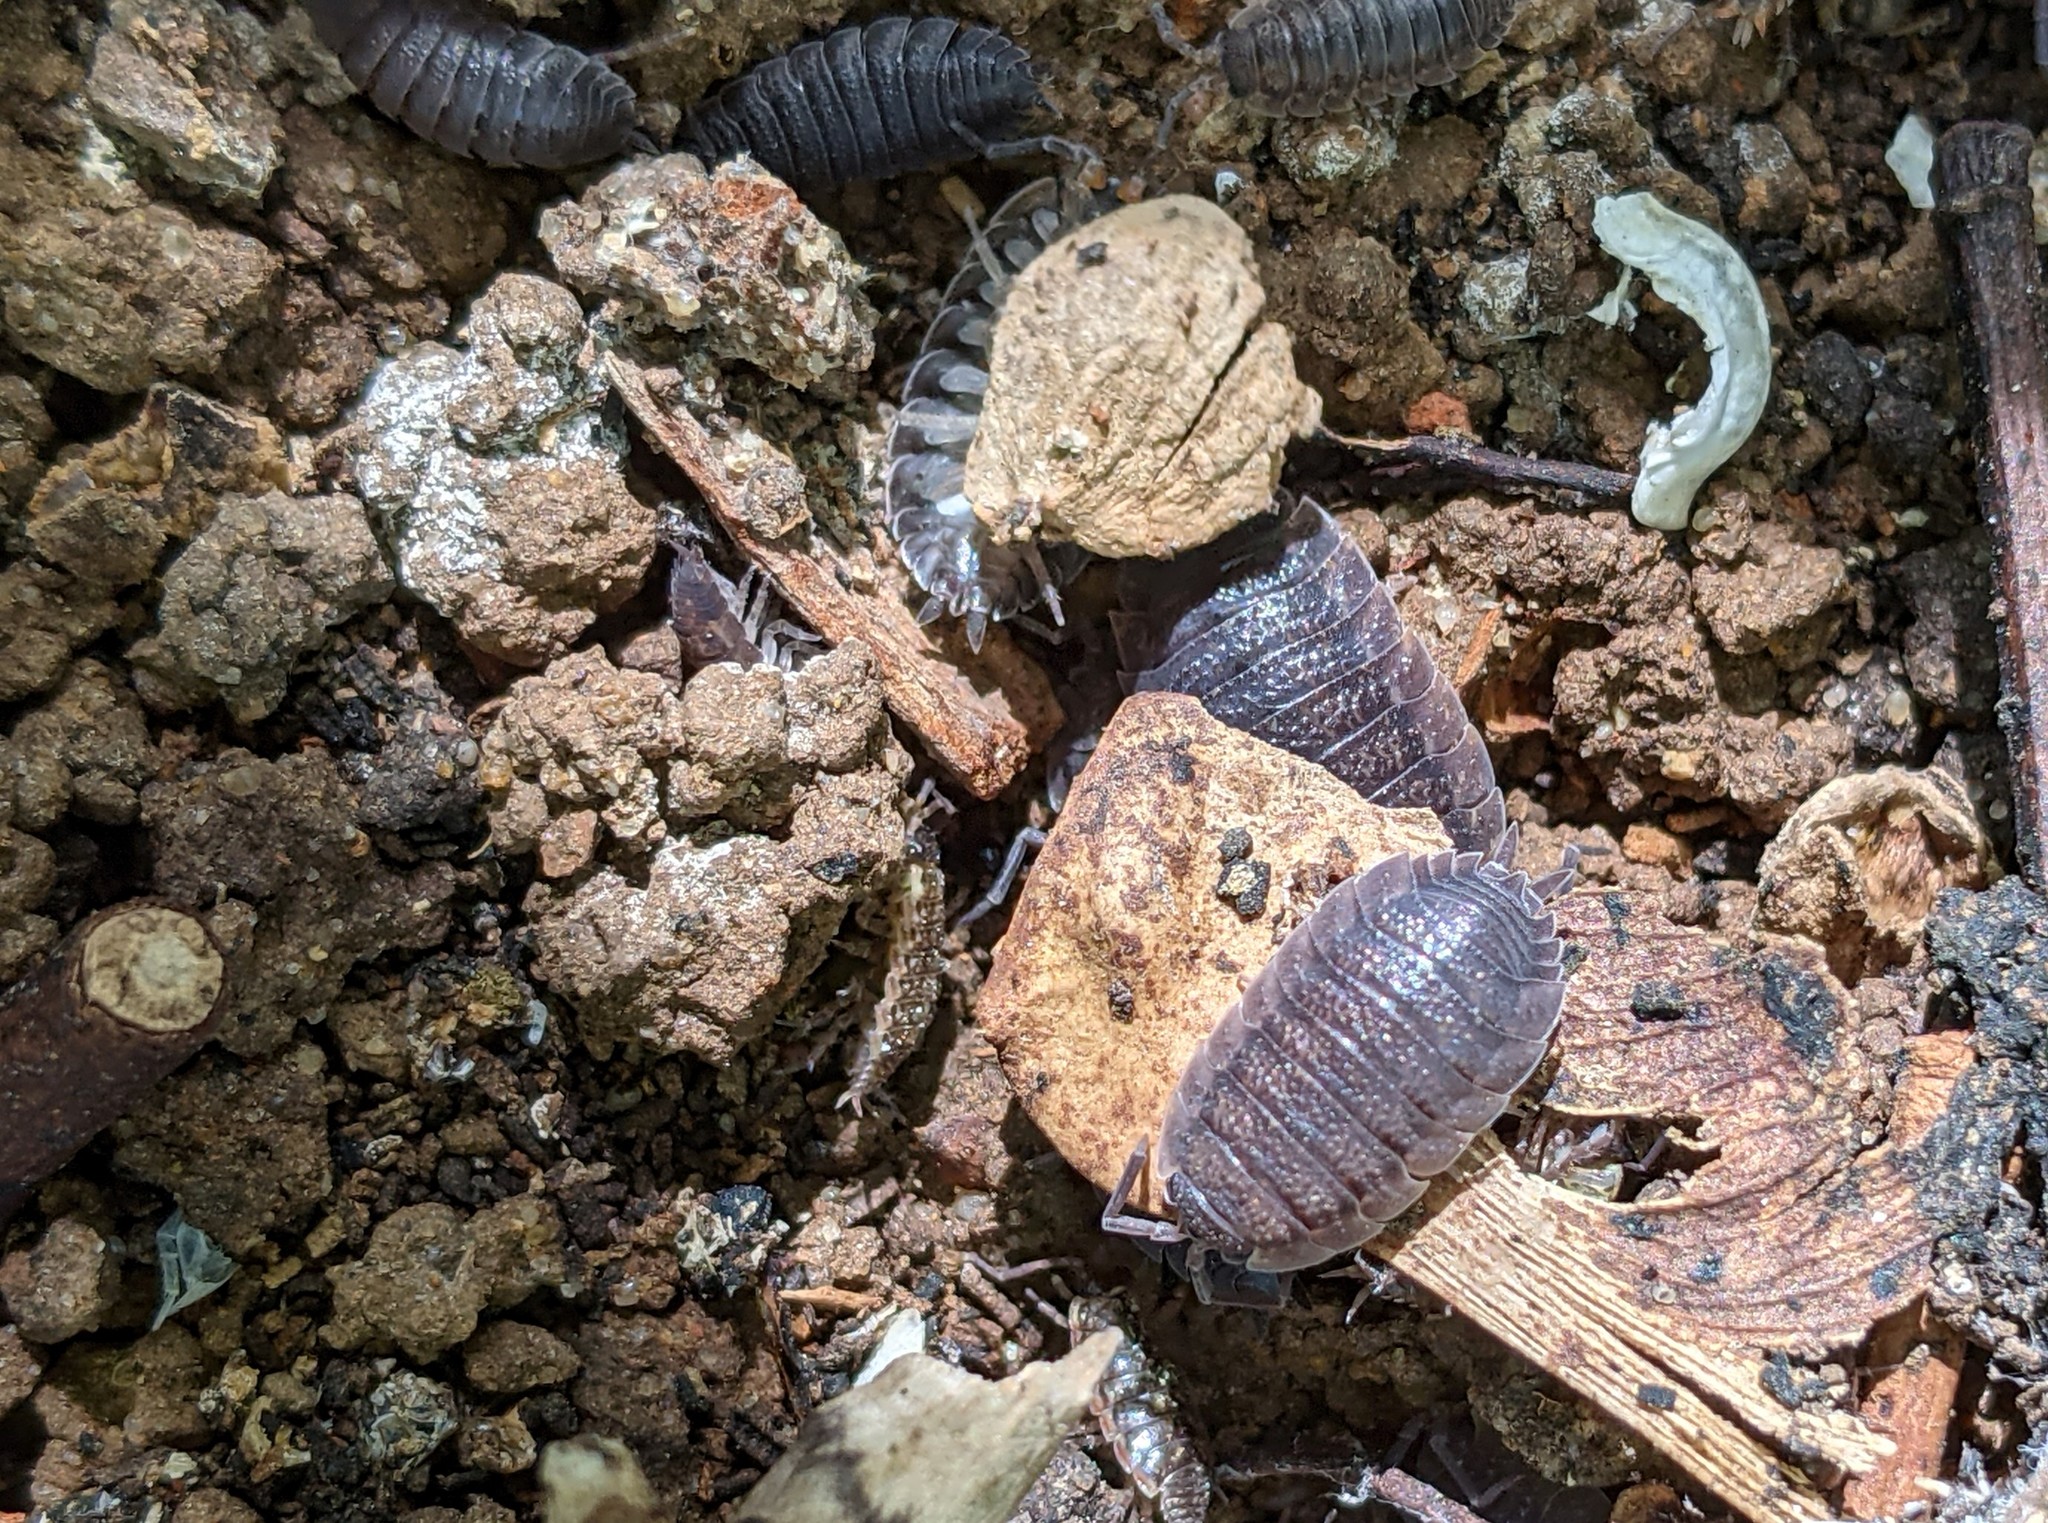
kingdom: Animalia
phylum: Arthropoda
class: Malacostraca
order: Isopoda
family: Porcellionidae
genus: Porcellio
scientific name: Porcellio scaber
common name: Common rough woodlouse
